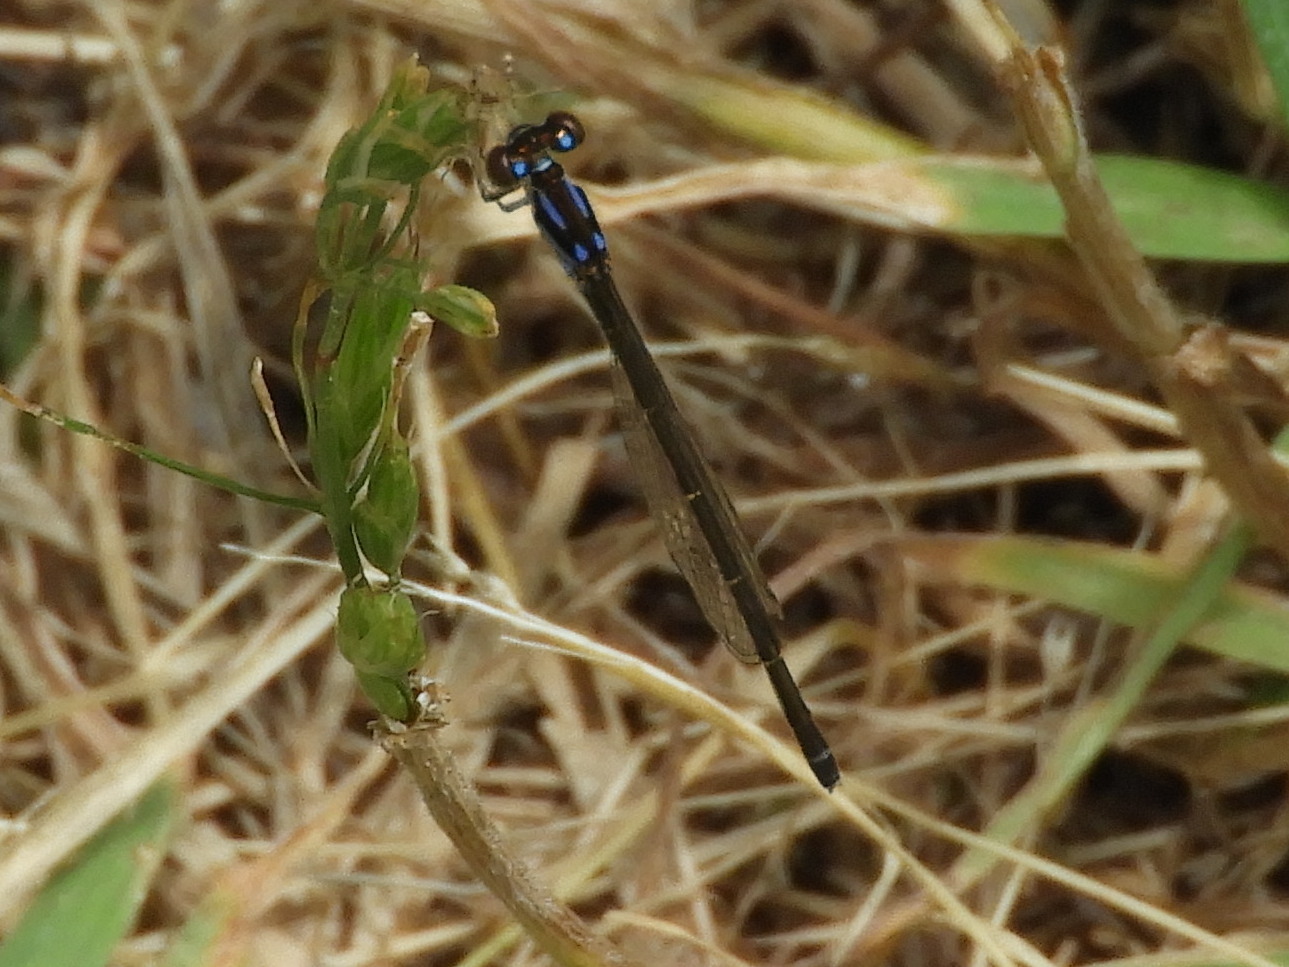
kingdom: Animalia
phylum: Arthropoda
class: Insecta
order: Odonata
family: Coenagrionidae
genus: Ischnura
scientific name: Ischnura posita
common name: Fragile forktail
